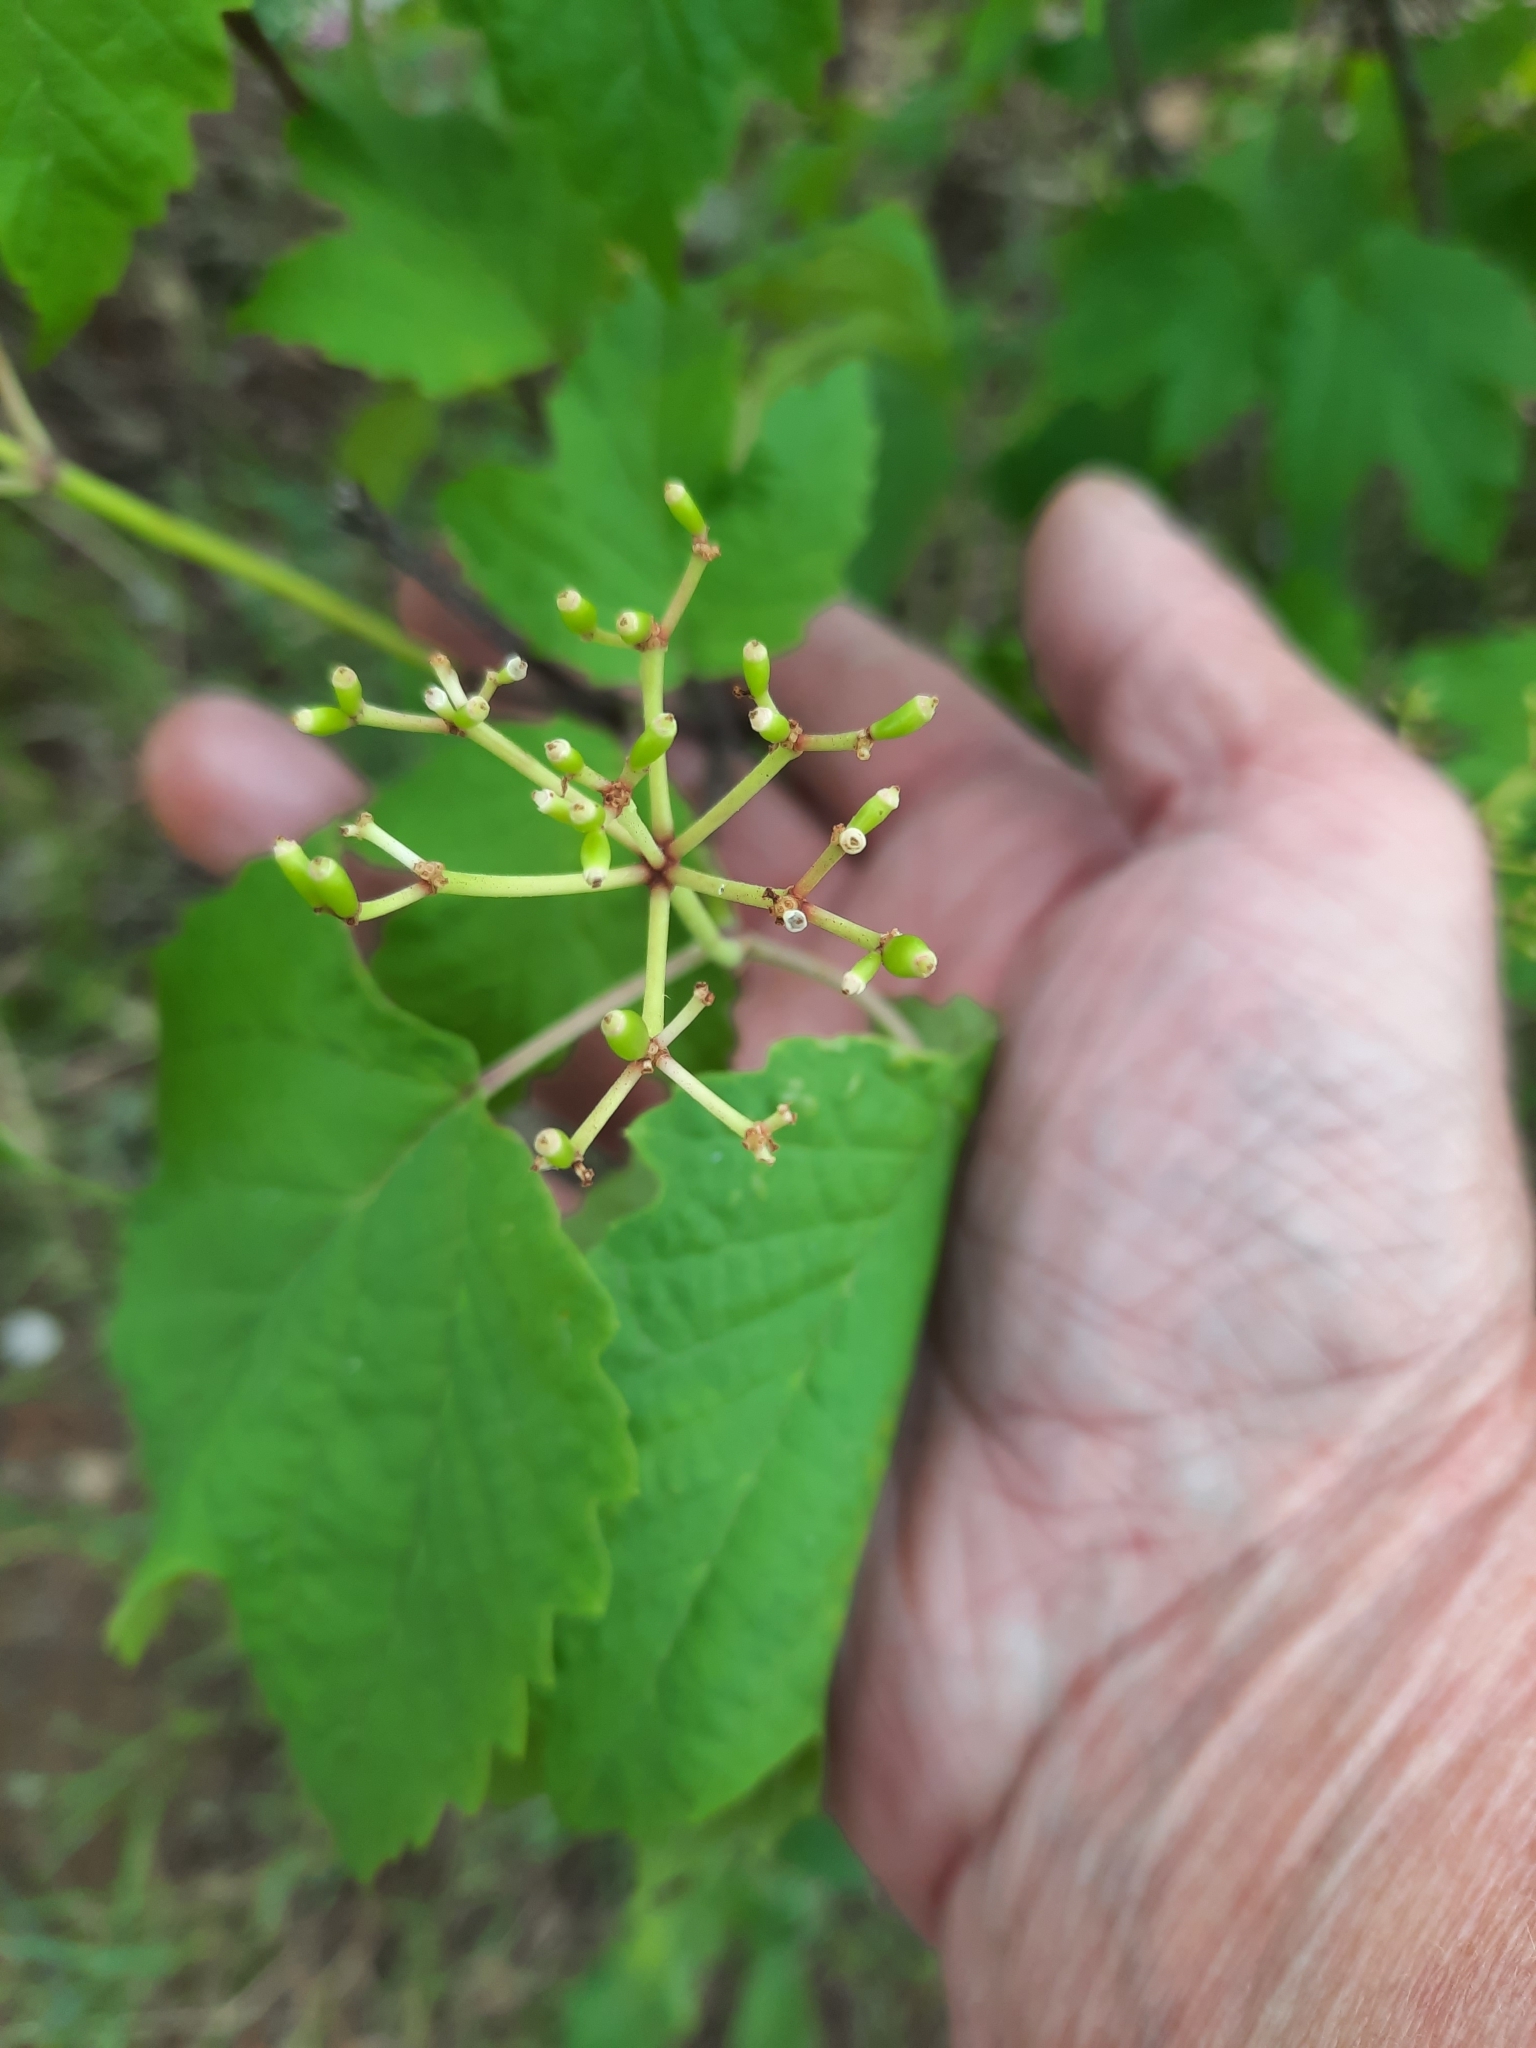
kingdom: Plantae
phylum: Tracheophyta
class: Magnoliopsida
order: Dipsacales
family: Viburnaceae
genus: Viburnum
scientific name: Viburnum acerifolium
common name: Dockmackie
